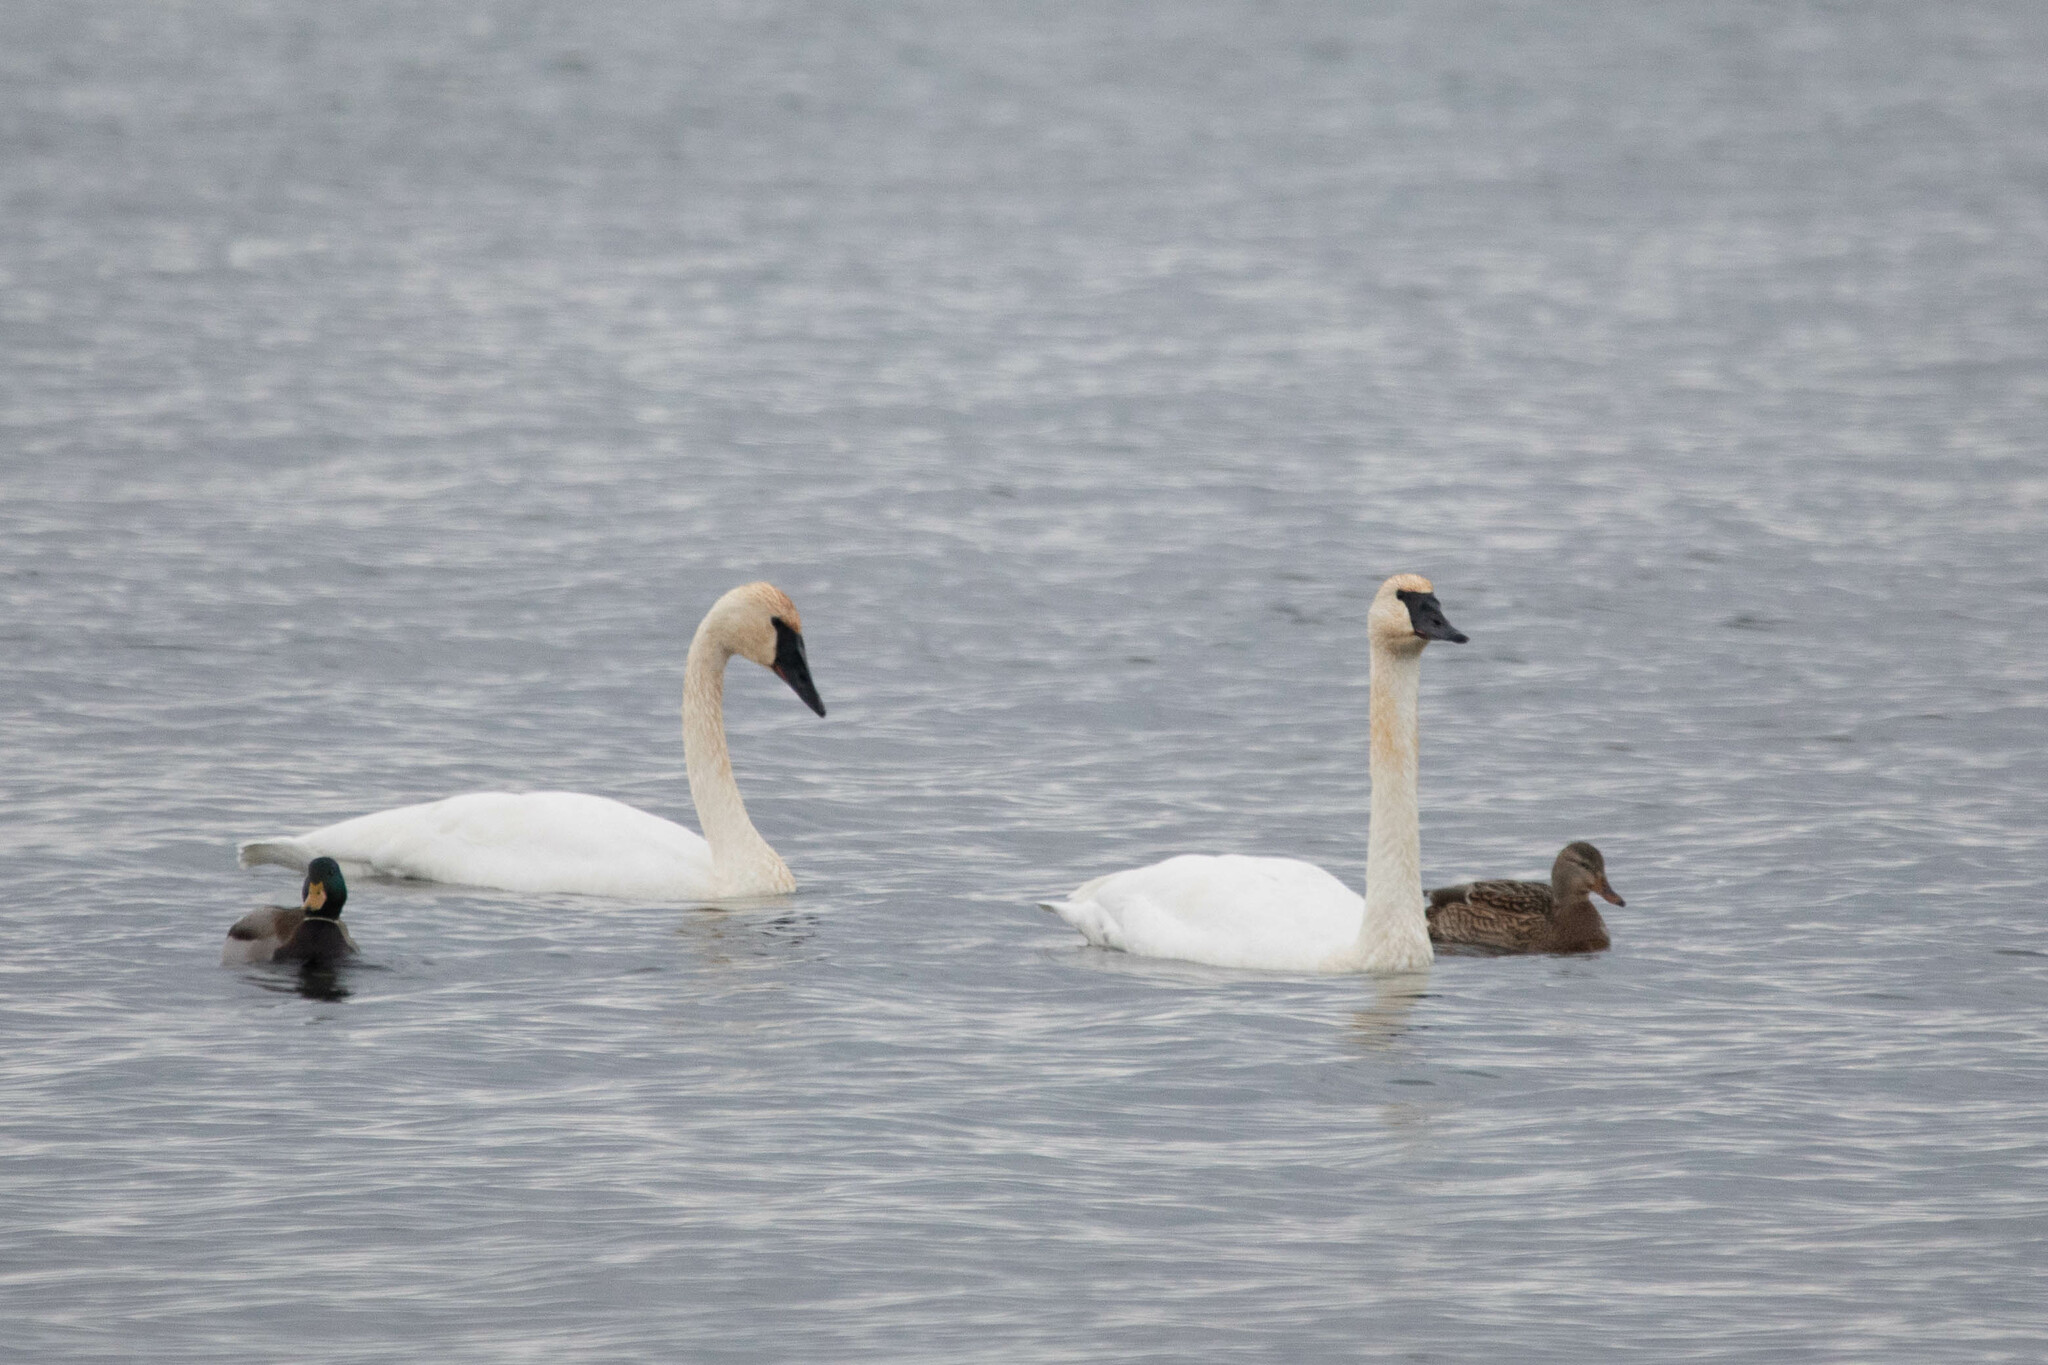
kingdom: Animalia
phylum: Chordata
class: Aves
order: Anseriformes
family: Anatidae
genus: Cygnus
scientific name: Cygnus buccinator
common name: Trumpeter swan
